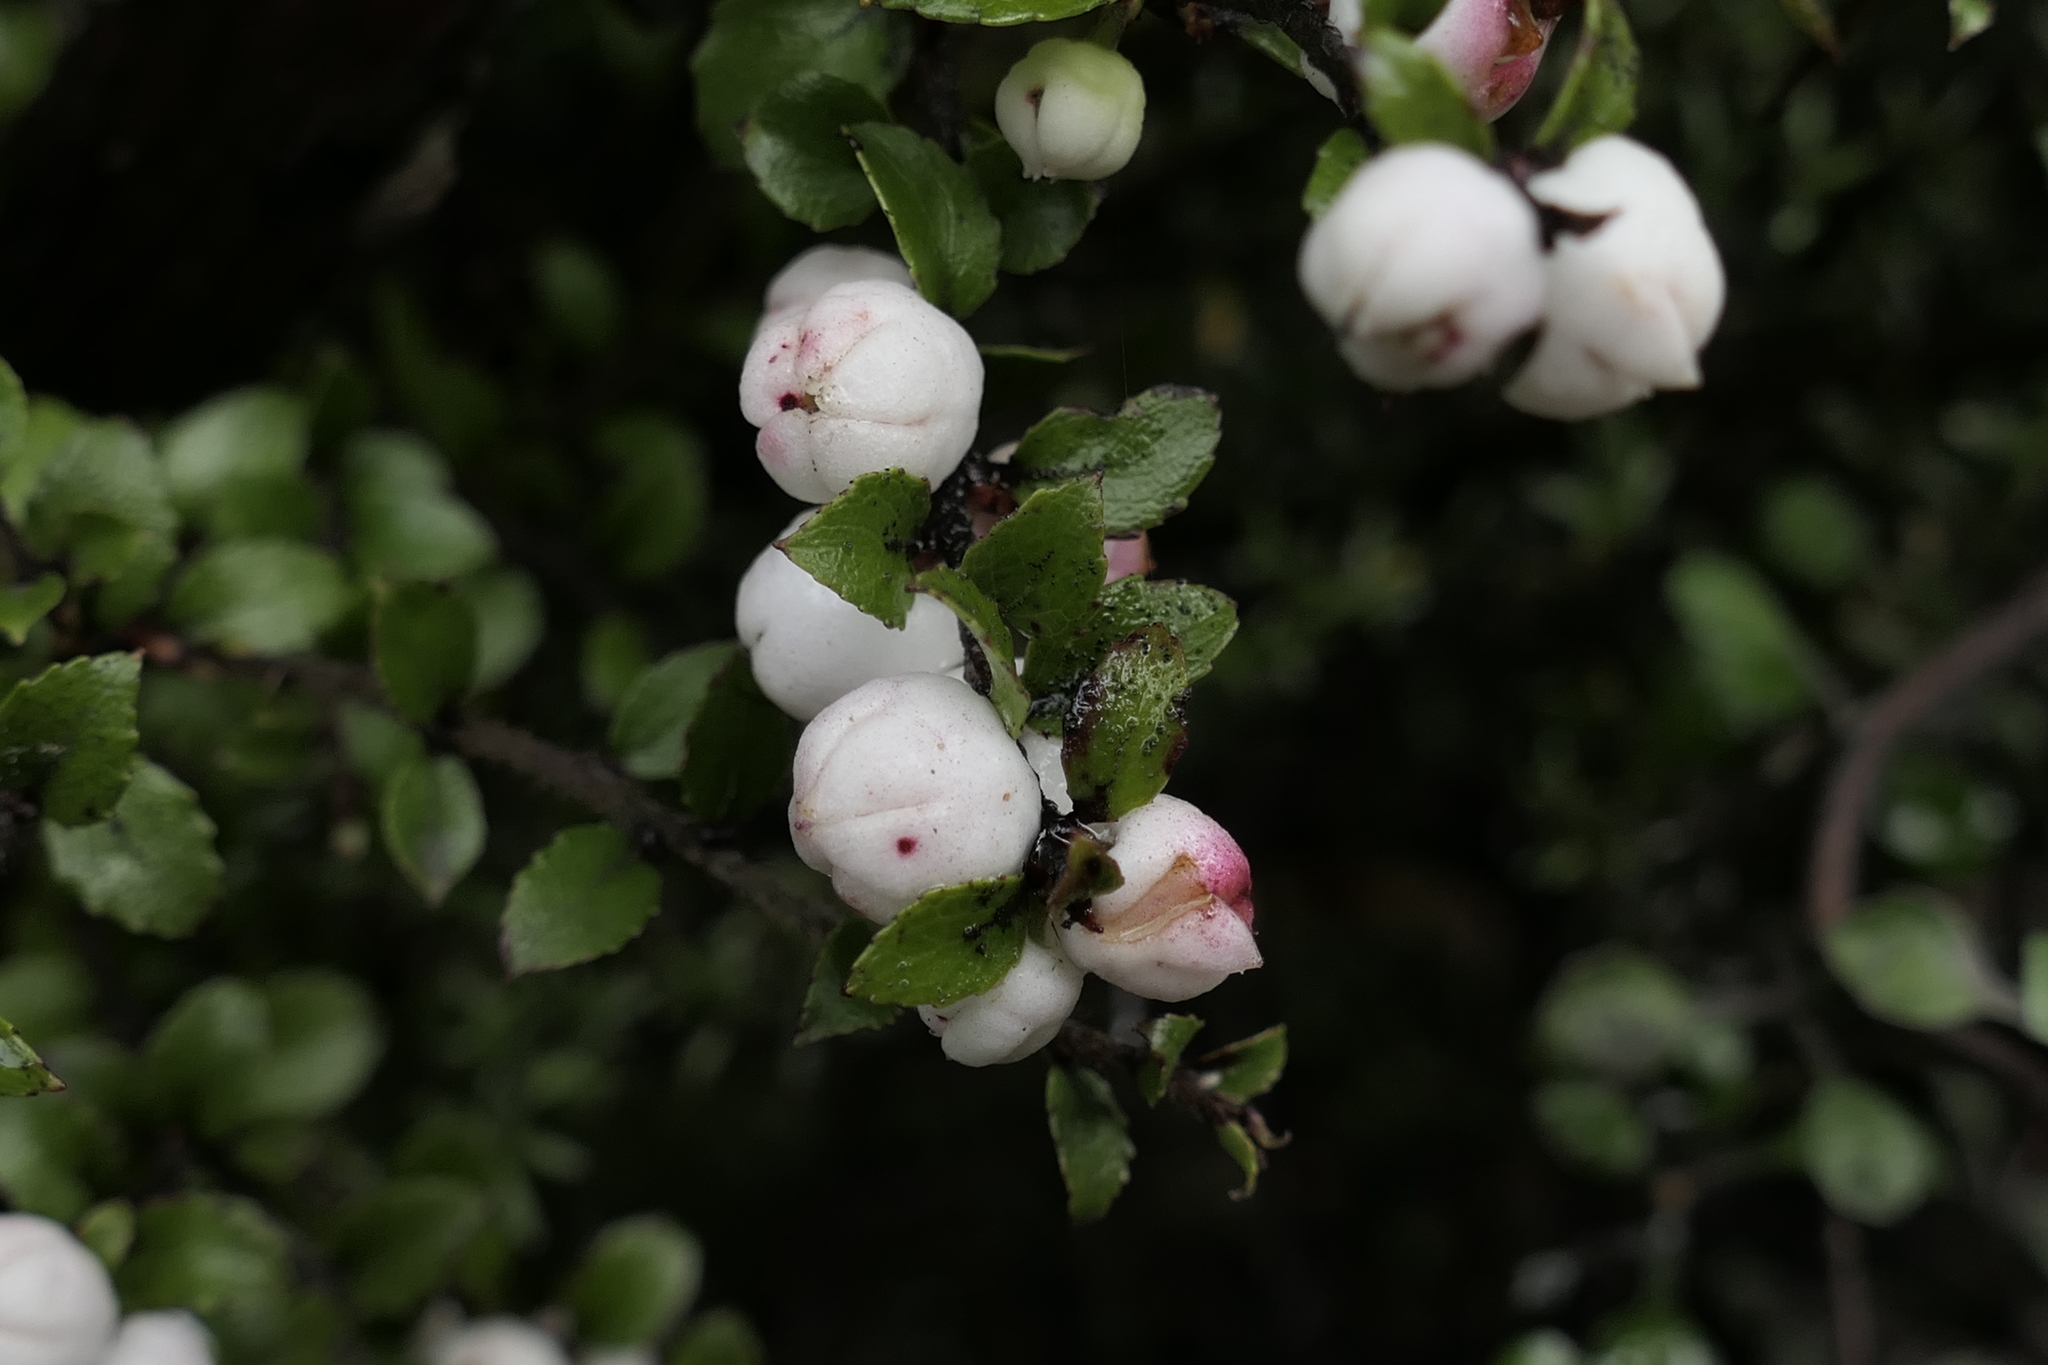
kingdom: Plantae
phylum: Tracheophyta
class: Magnoliopsida
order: Ericales
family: Ericaceae
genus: Gaultheria
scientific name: Gaultheria depressa
